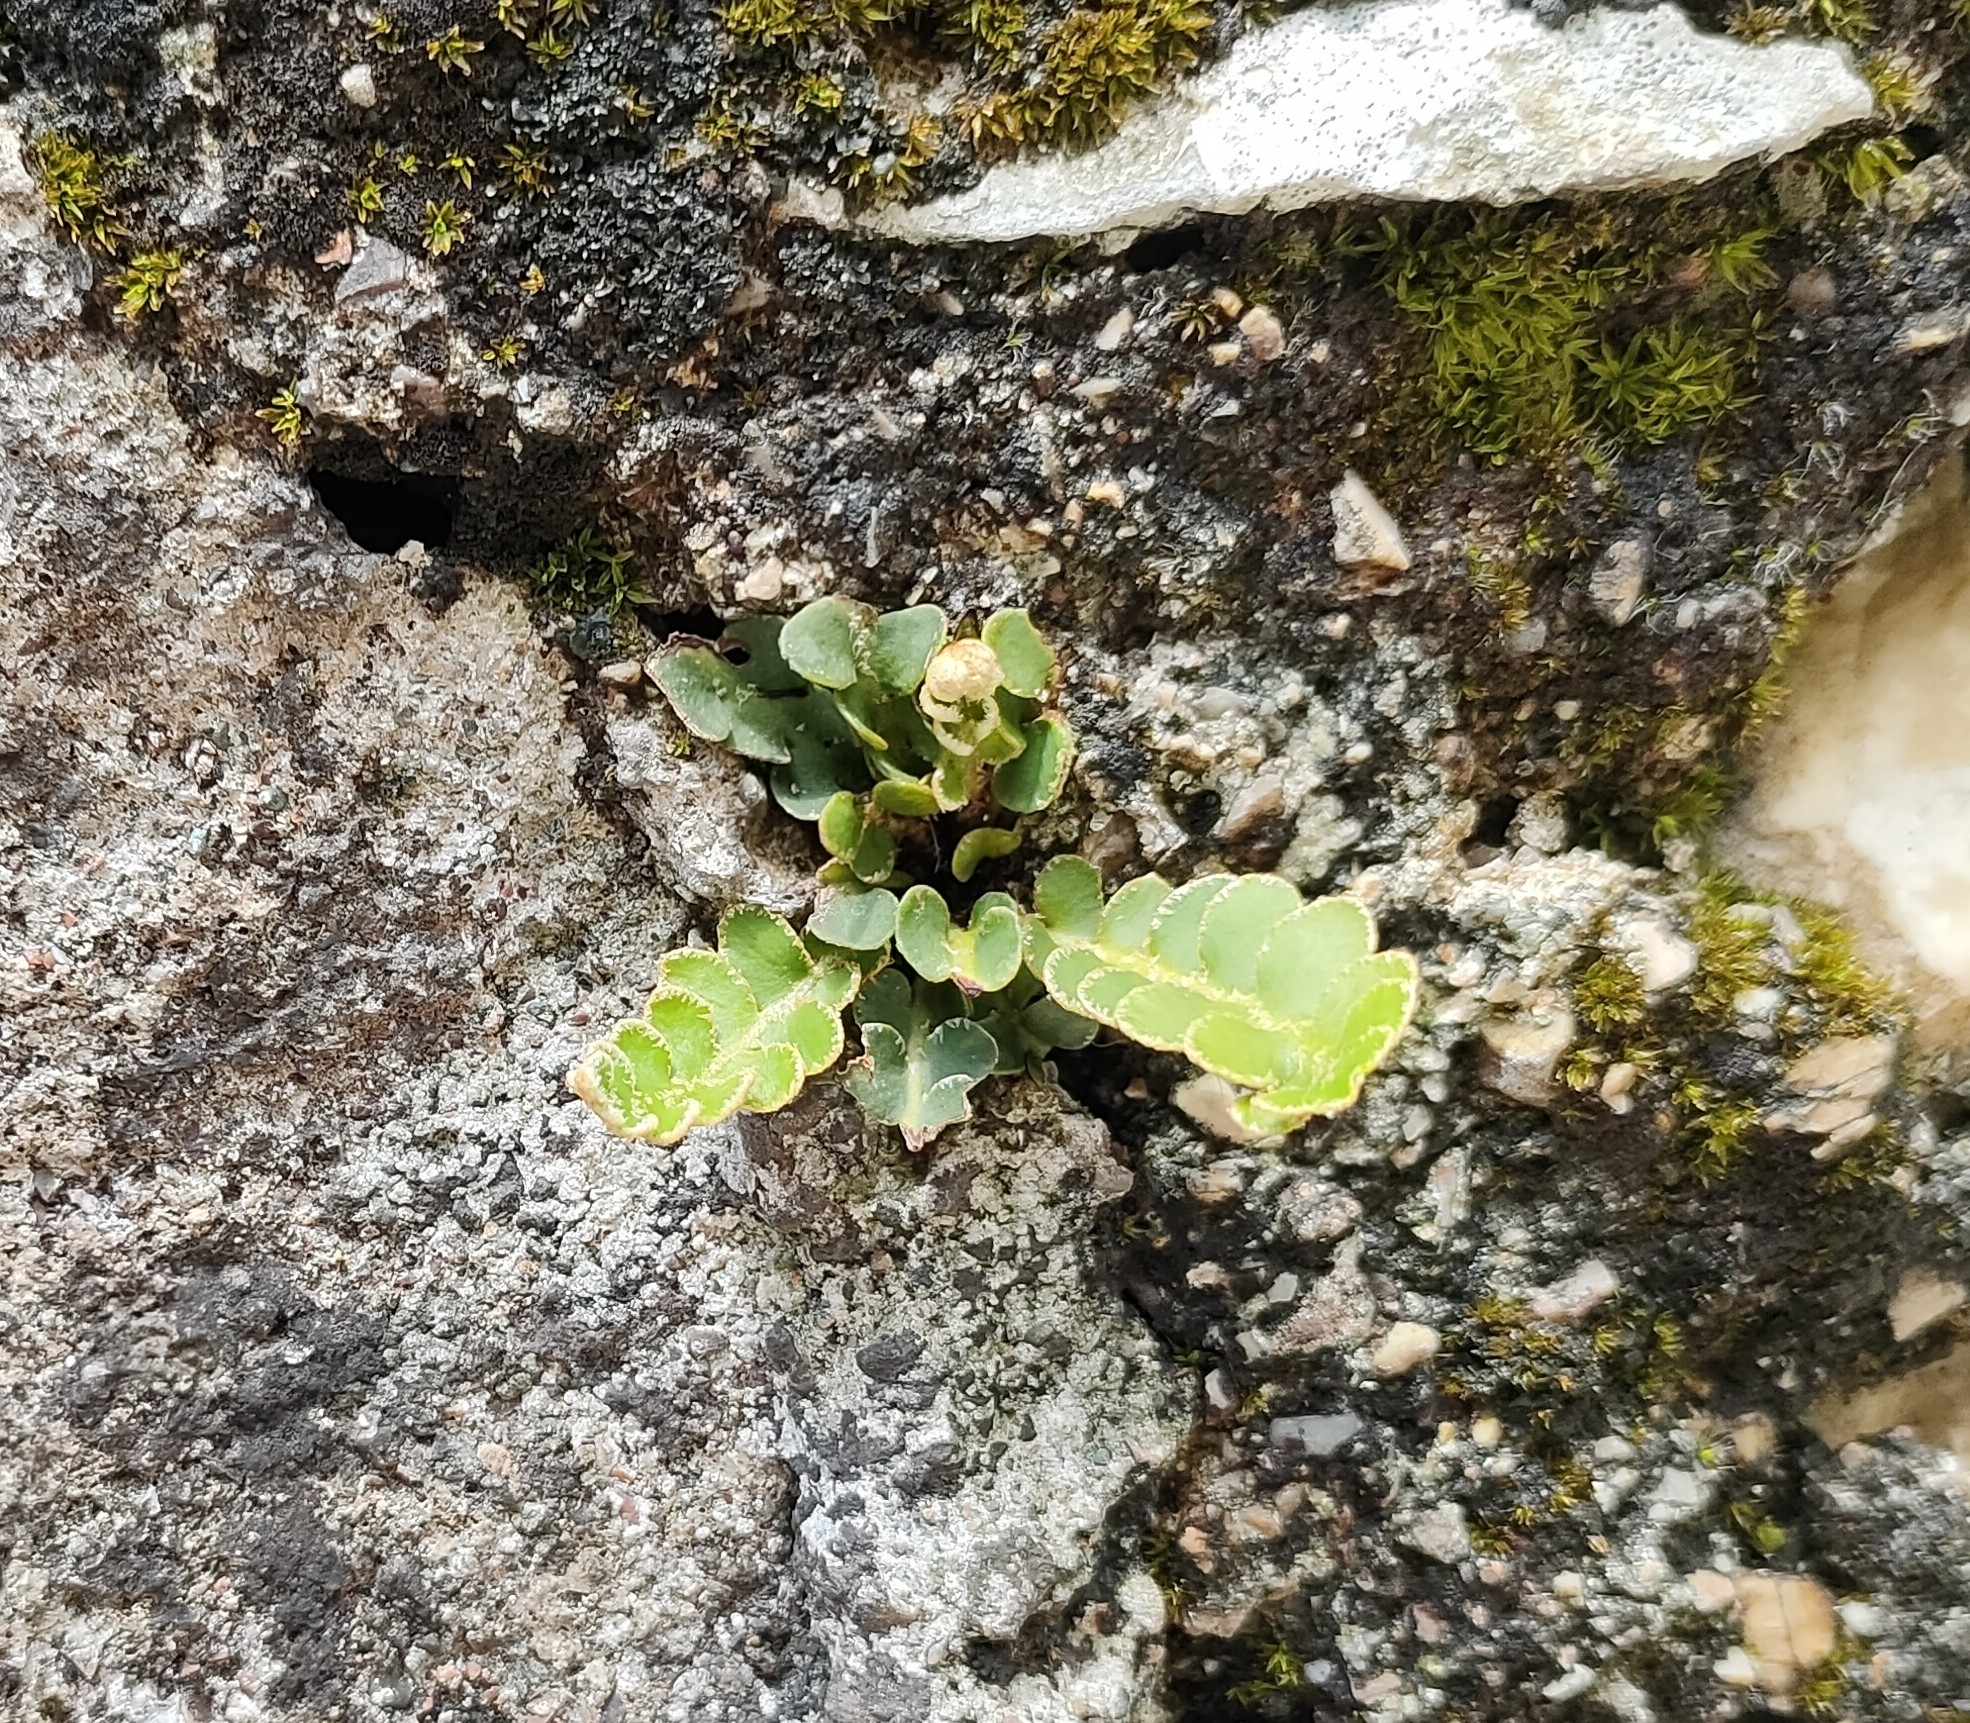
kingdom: Plantae
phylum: Tracheophyta
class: Polypodiopsida
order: Polypodiales
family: Aspleniaceae
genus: Asplenium
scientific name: Asplenium ceterach
